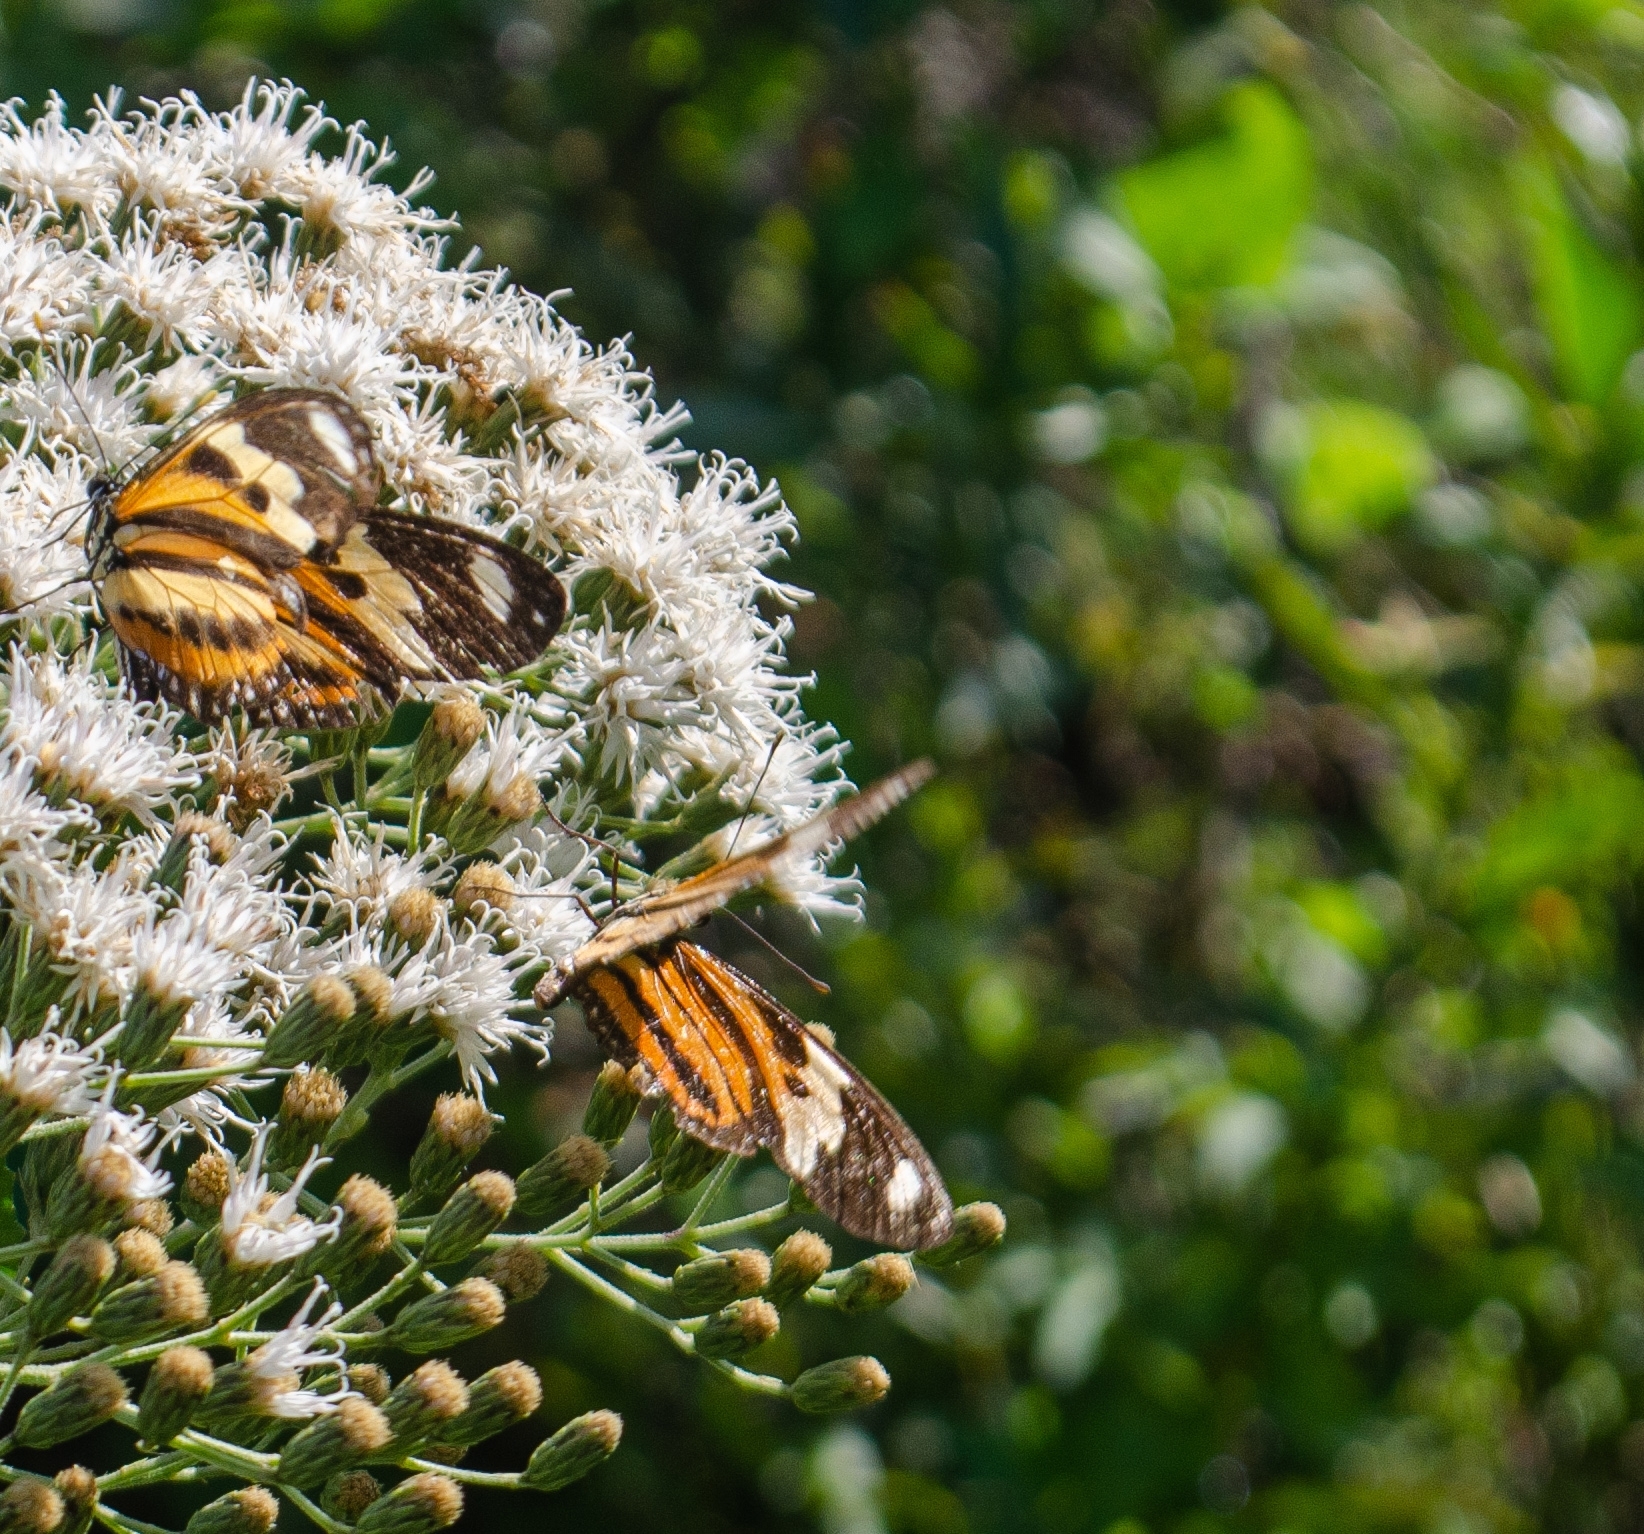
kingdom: Animalia
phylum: Arthropoda
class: Insecta
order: Lepidoptera
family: Nymphalidae
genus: Eueides
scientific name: Eueides isabella
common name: Isabella's longwing
